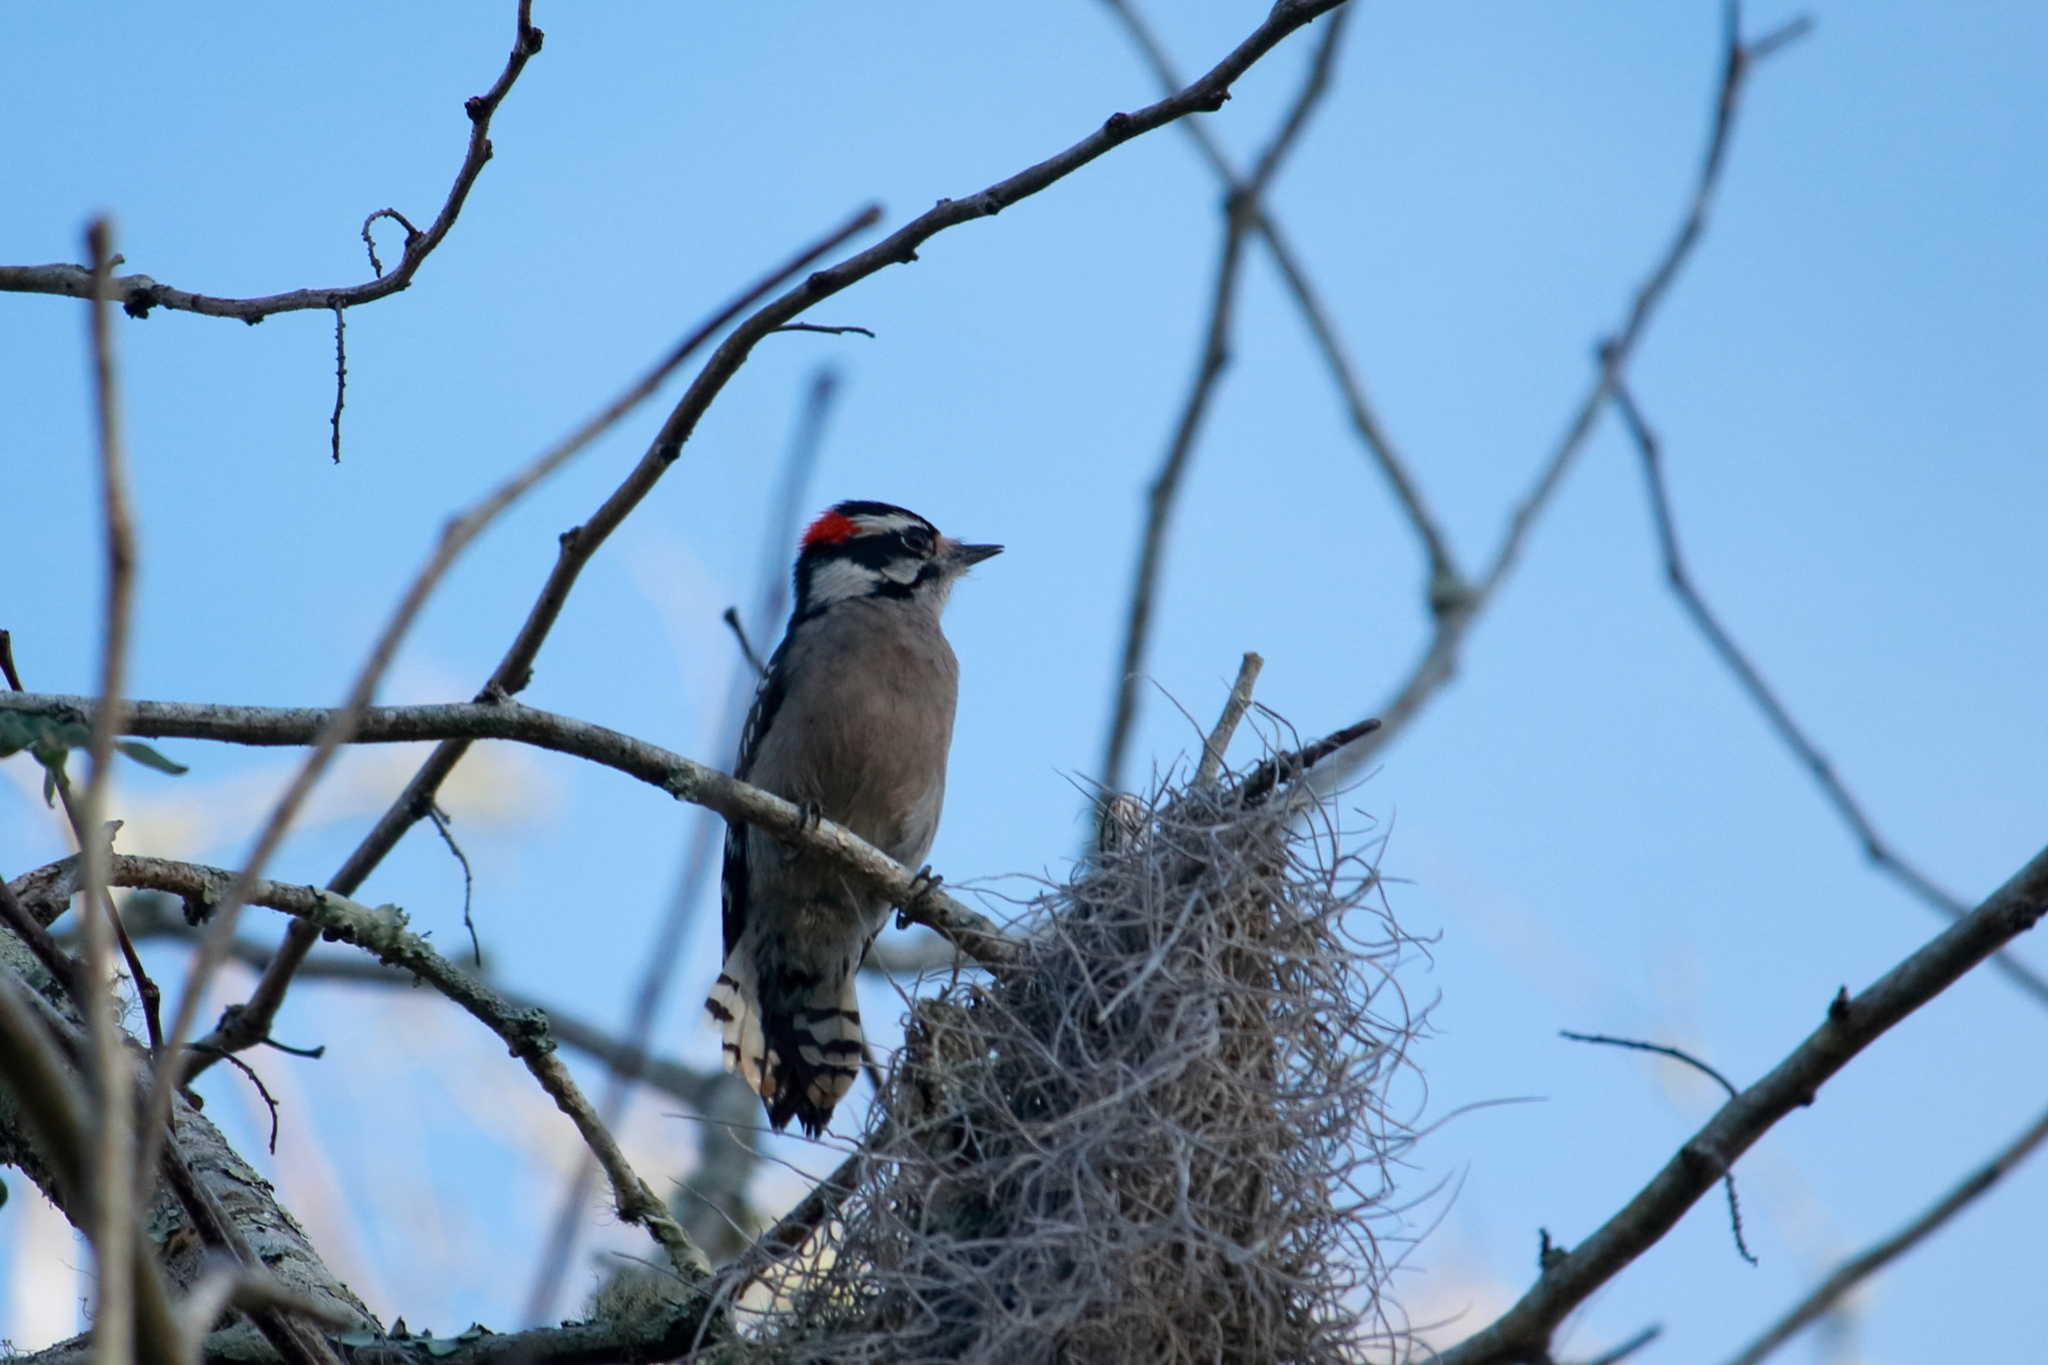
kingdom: Animalia
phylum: Chordata
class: Aves
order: Piciformes
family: Picidae
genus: Dryobates
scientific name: Dryobates pubescens
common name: Downy woodpecker
